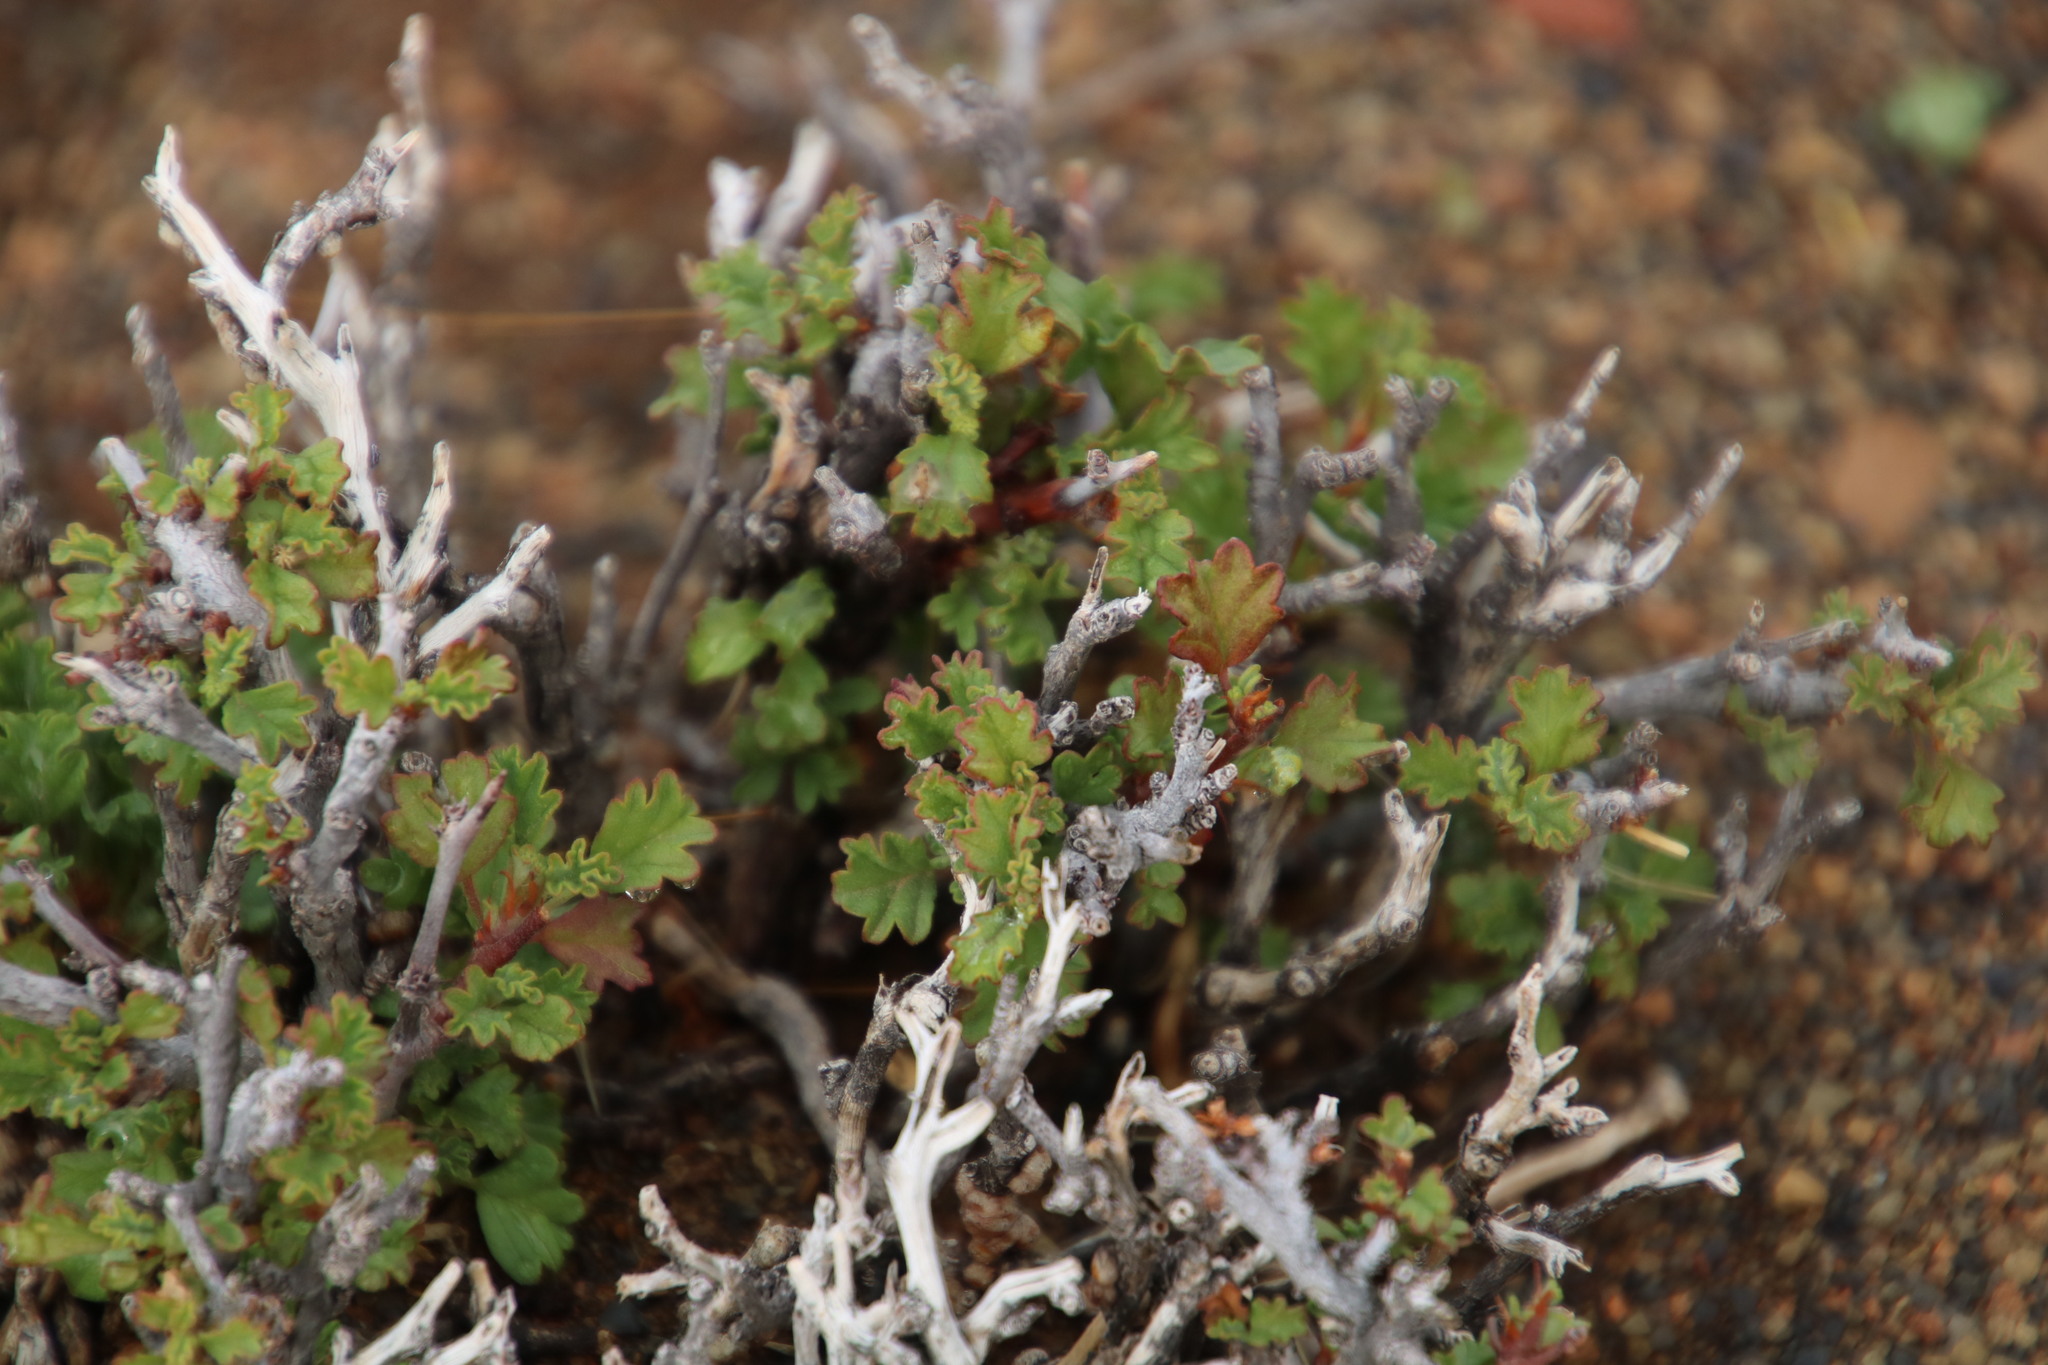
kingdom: Plantae
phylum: Tracheophyta
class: Magnoliopsida
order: Malvales
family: Malvaceae
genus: Hermannia
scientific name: Hermannia spinosa
